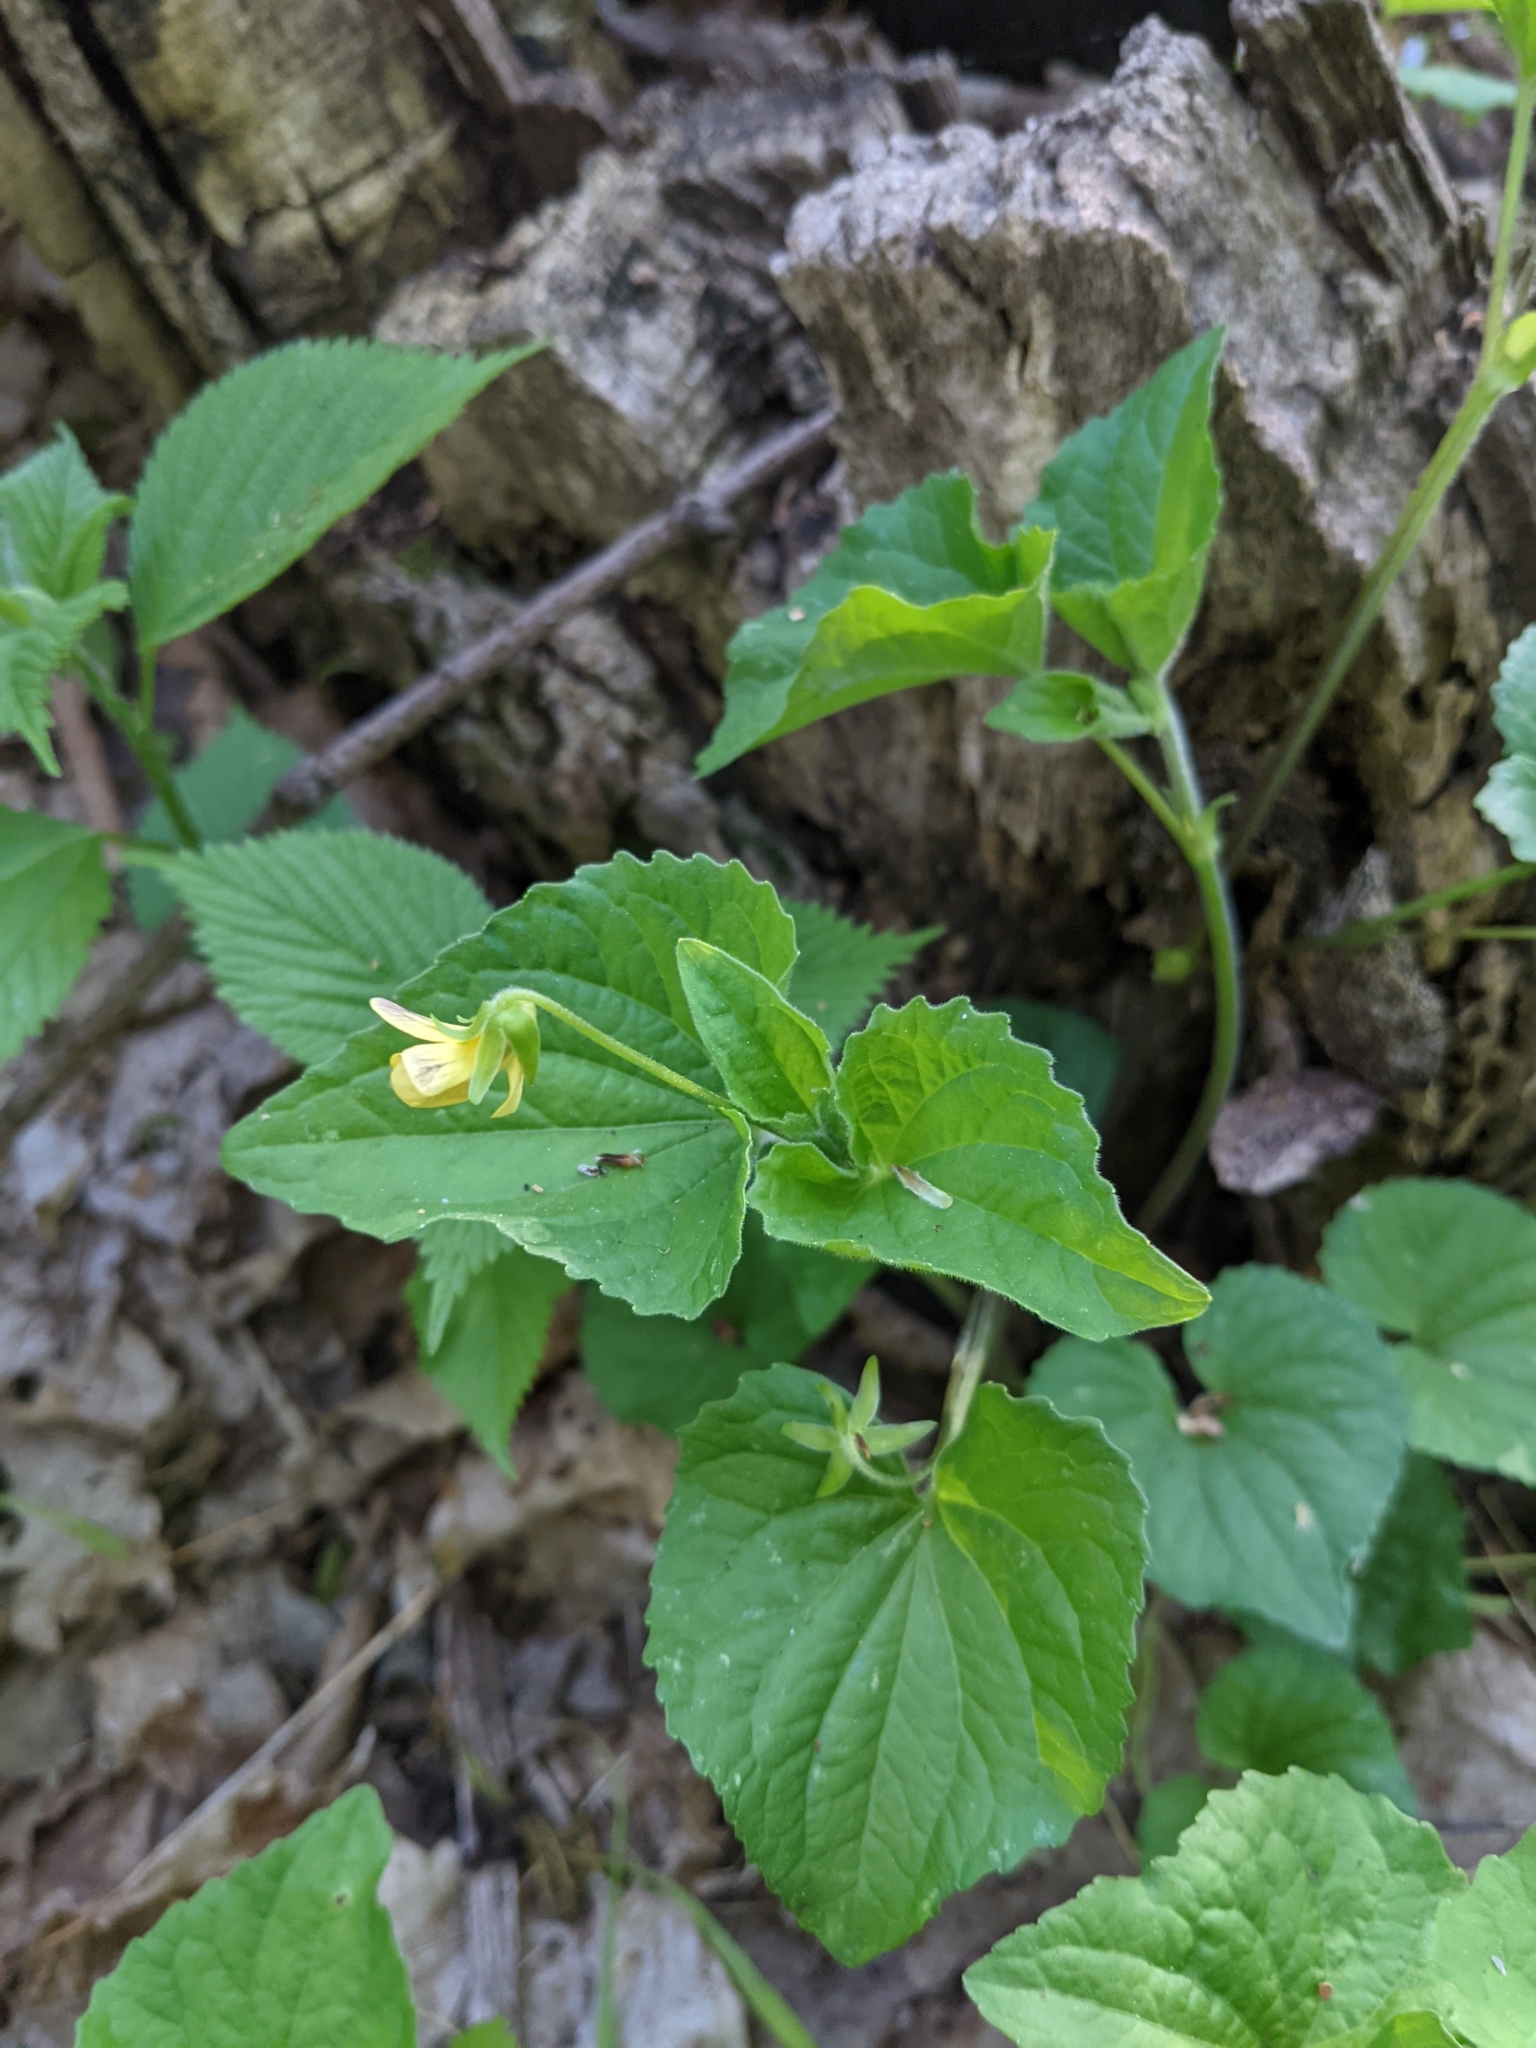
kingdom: Plantae
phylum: Tracheophyta
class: Magnoliopsida
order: Malpighiales
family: Violaceae
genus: Viola
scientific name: Viola eriocarpa
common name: Smooth yellow violet
